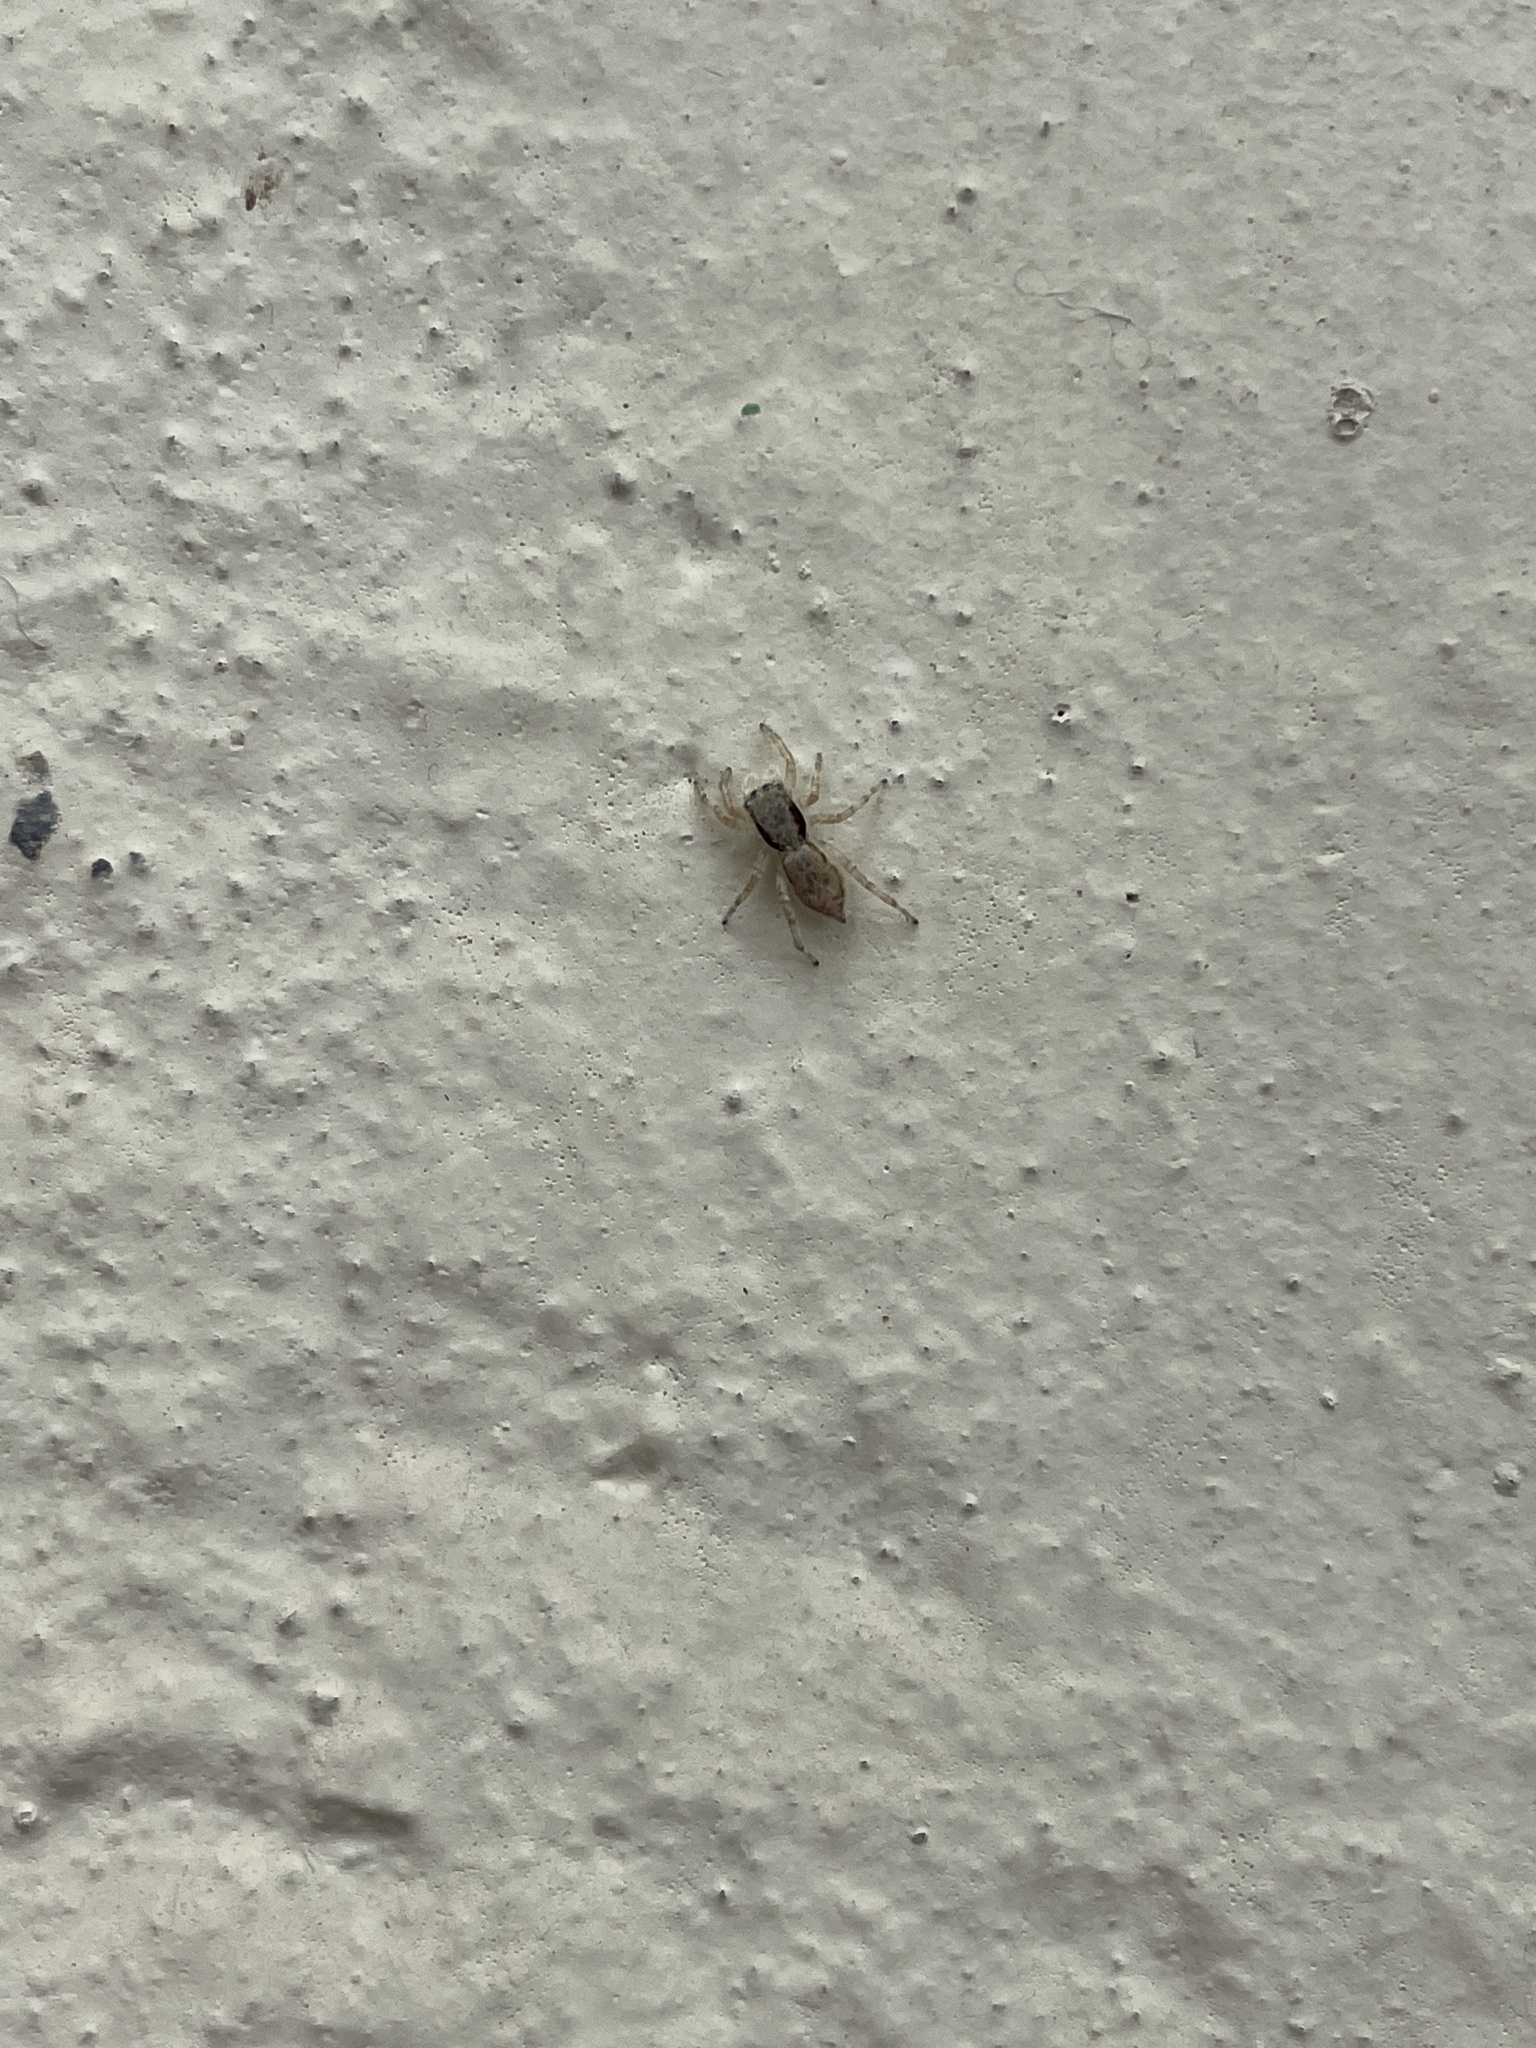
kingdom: Animalia
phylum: Arthropoda
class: Arachnida
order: Araneae
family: Salticidae
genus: Menemerus
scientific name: Menemerus bivittatus
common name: Gray wall jumper
